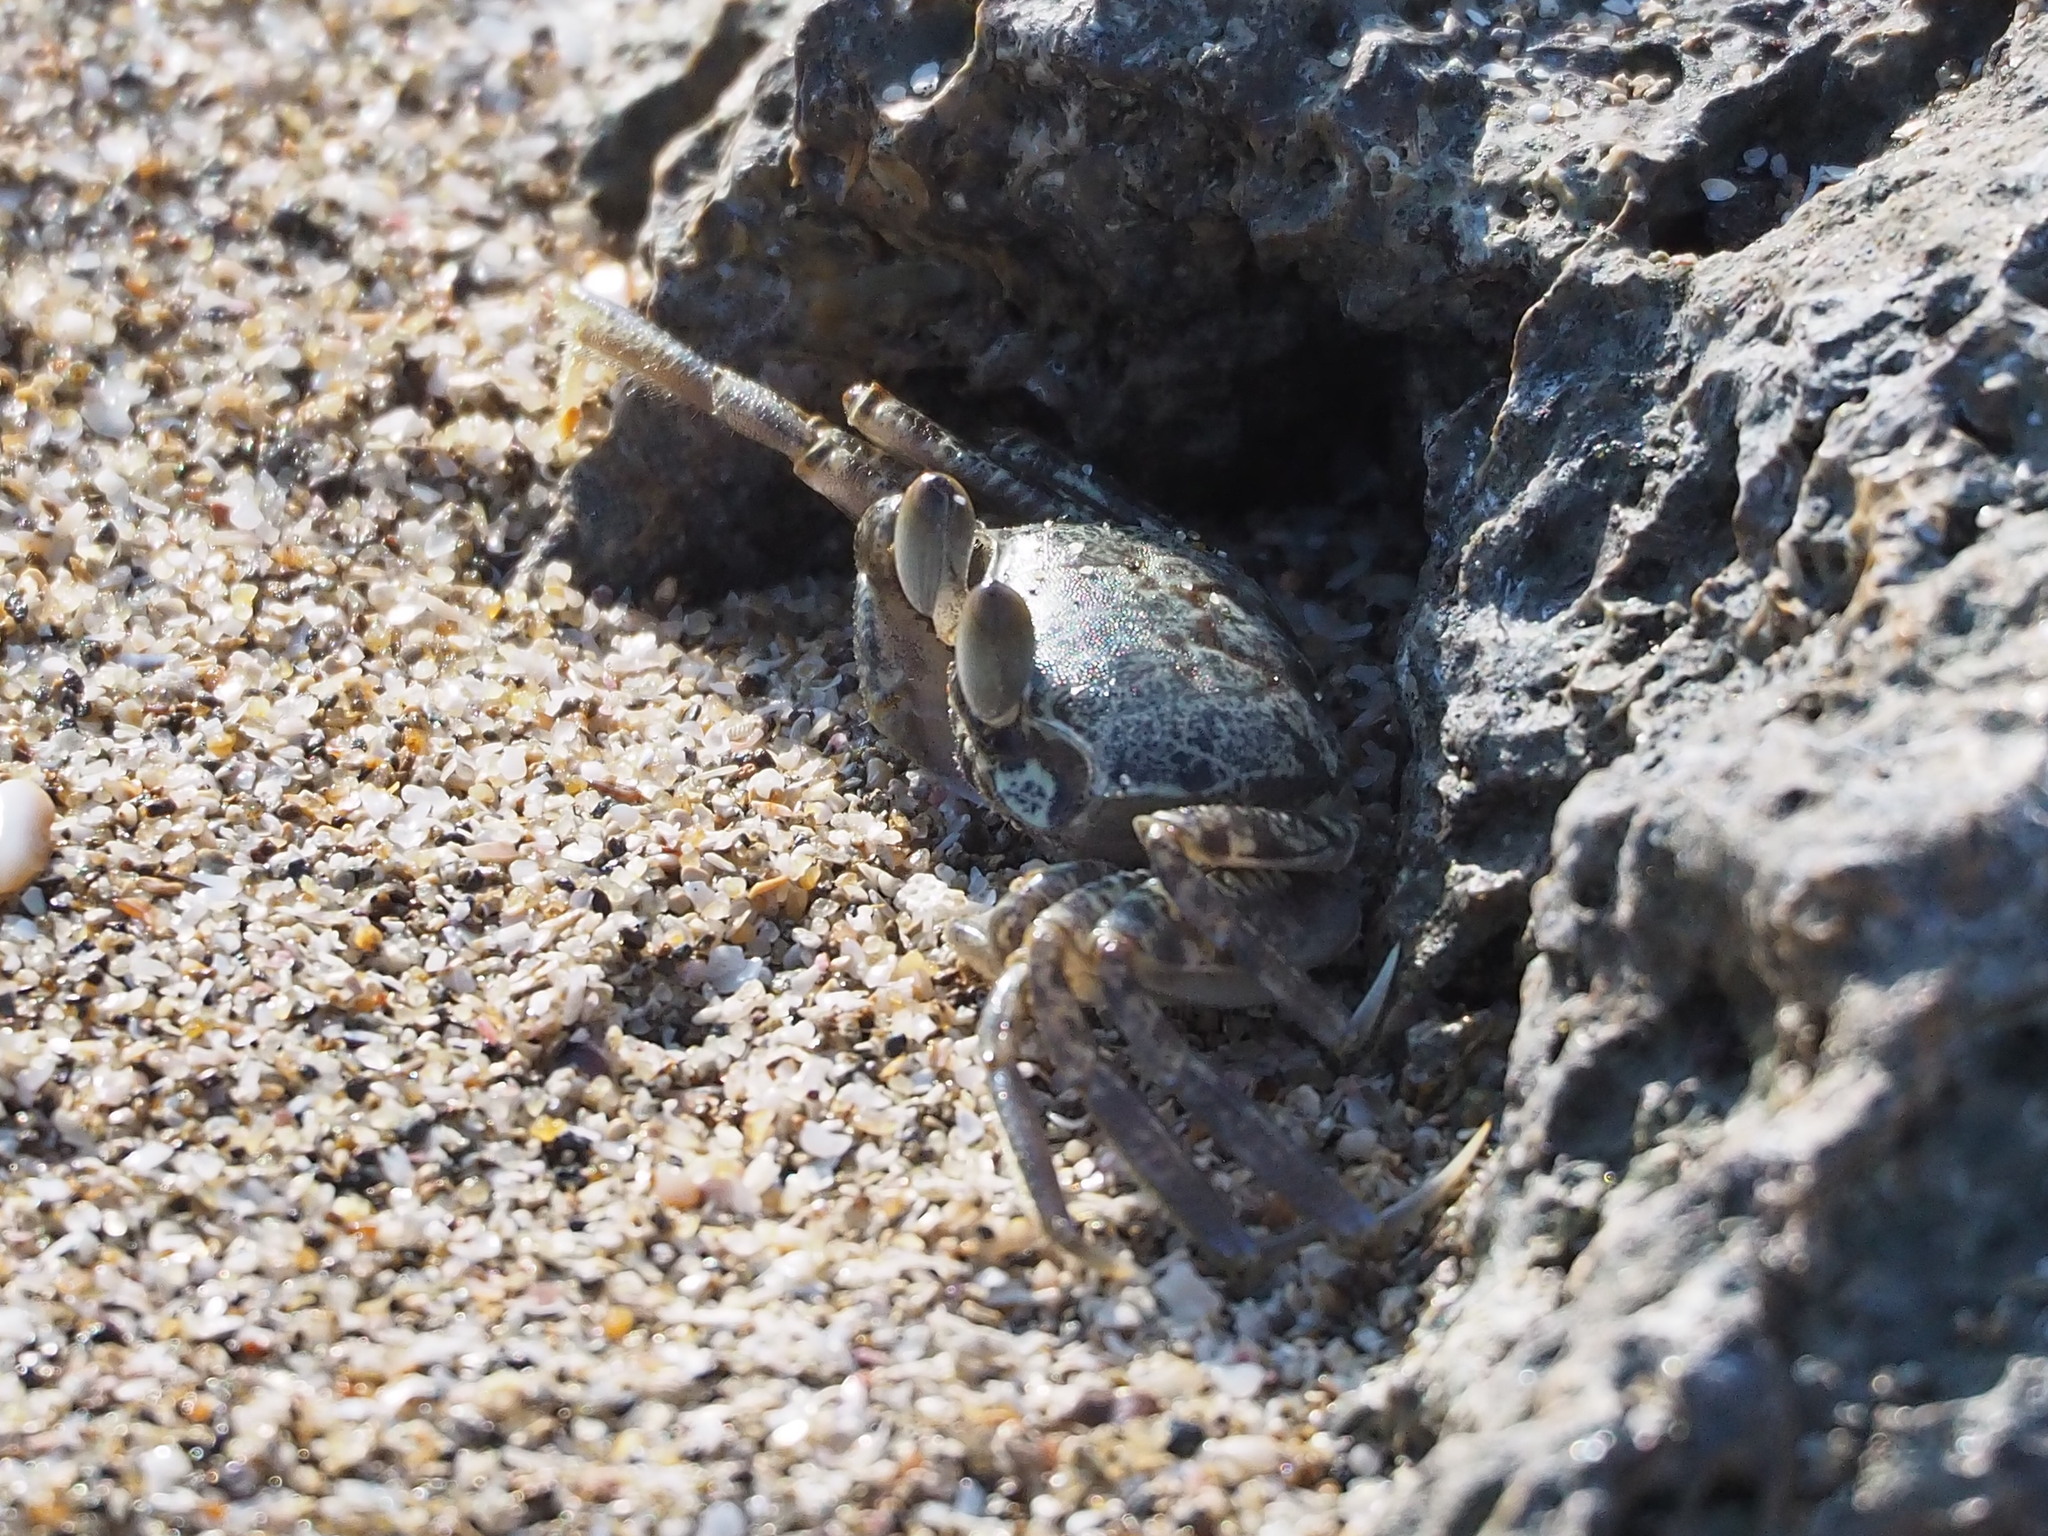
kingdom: Animalia
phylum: Arthropoda
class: Malacostraca
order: Decapoda
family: Ocypodidae
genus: Ocypode
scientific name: Ocypode ceratophthalmus
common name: Indo-pacific ghost crab
